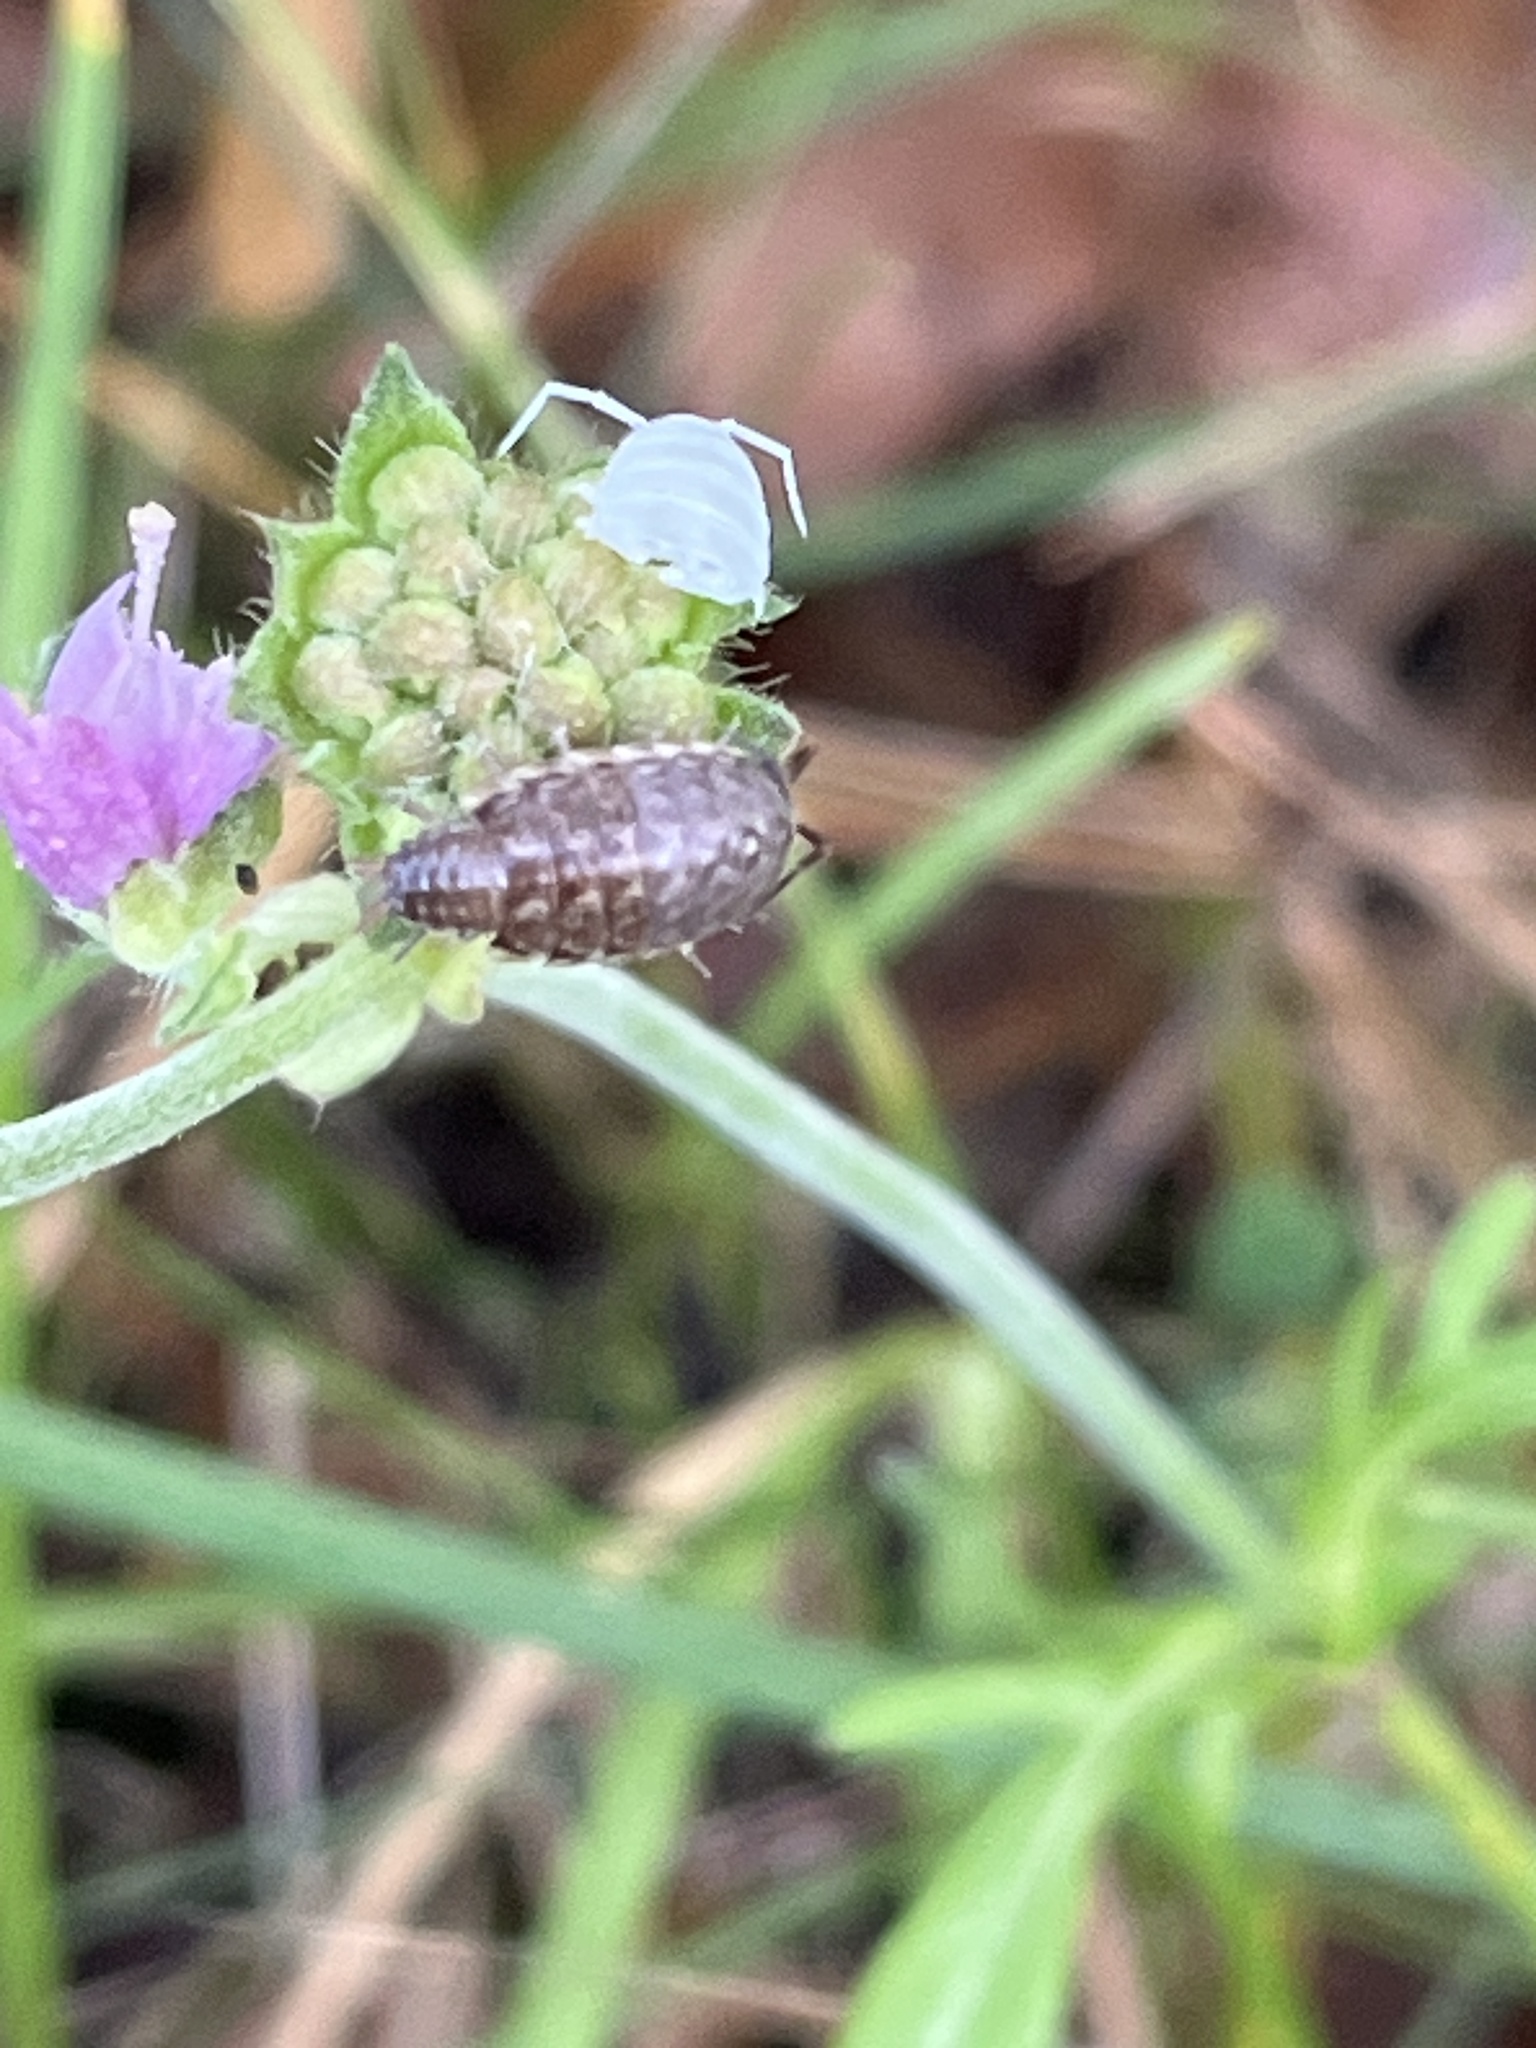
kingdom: Animalia
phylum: Arthropoda
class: Malacostraca
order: Isopoda
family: Philosciidae
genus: Philoscia
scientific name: Philoscia muscorum
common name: Common striped woodlouse
